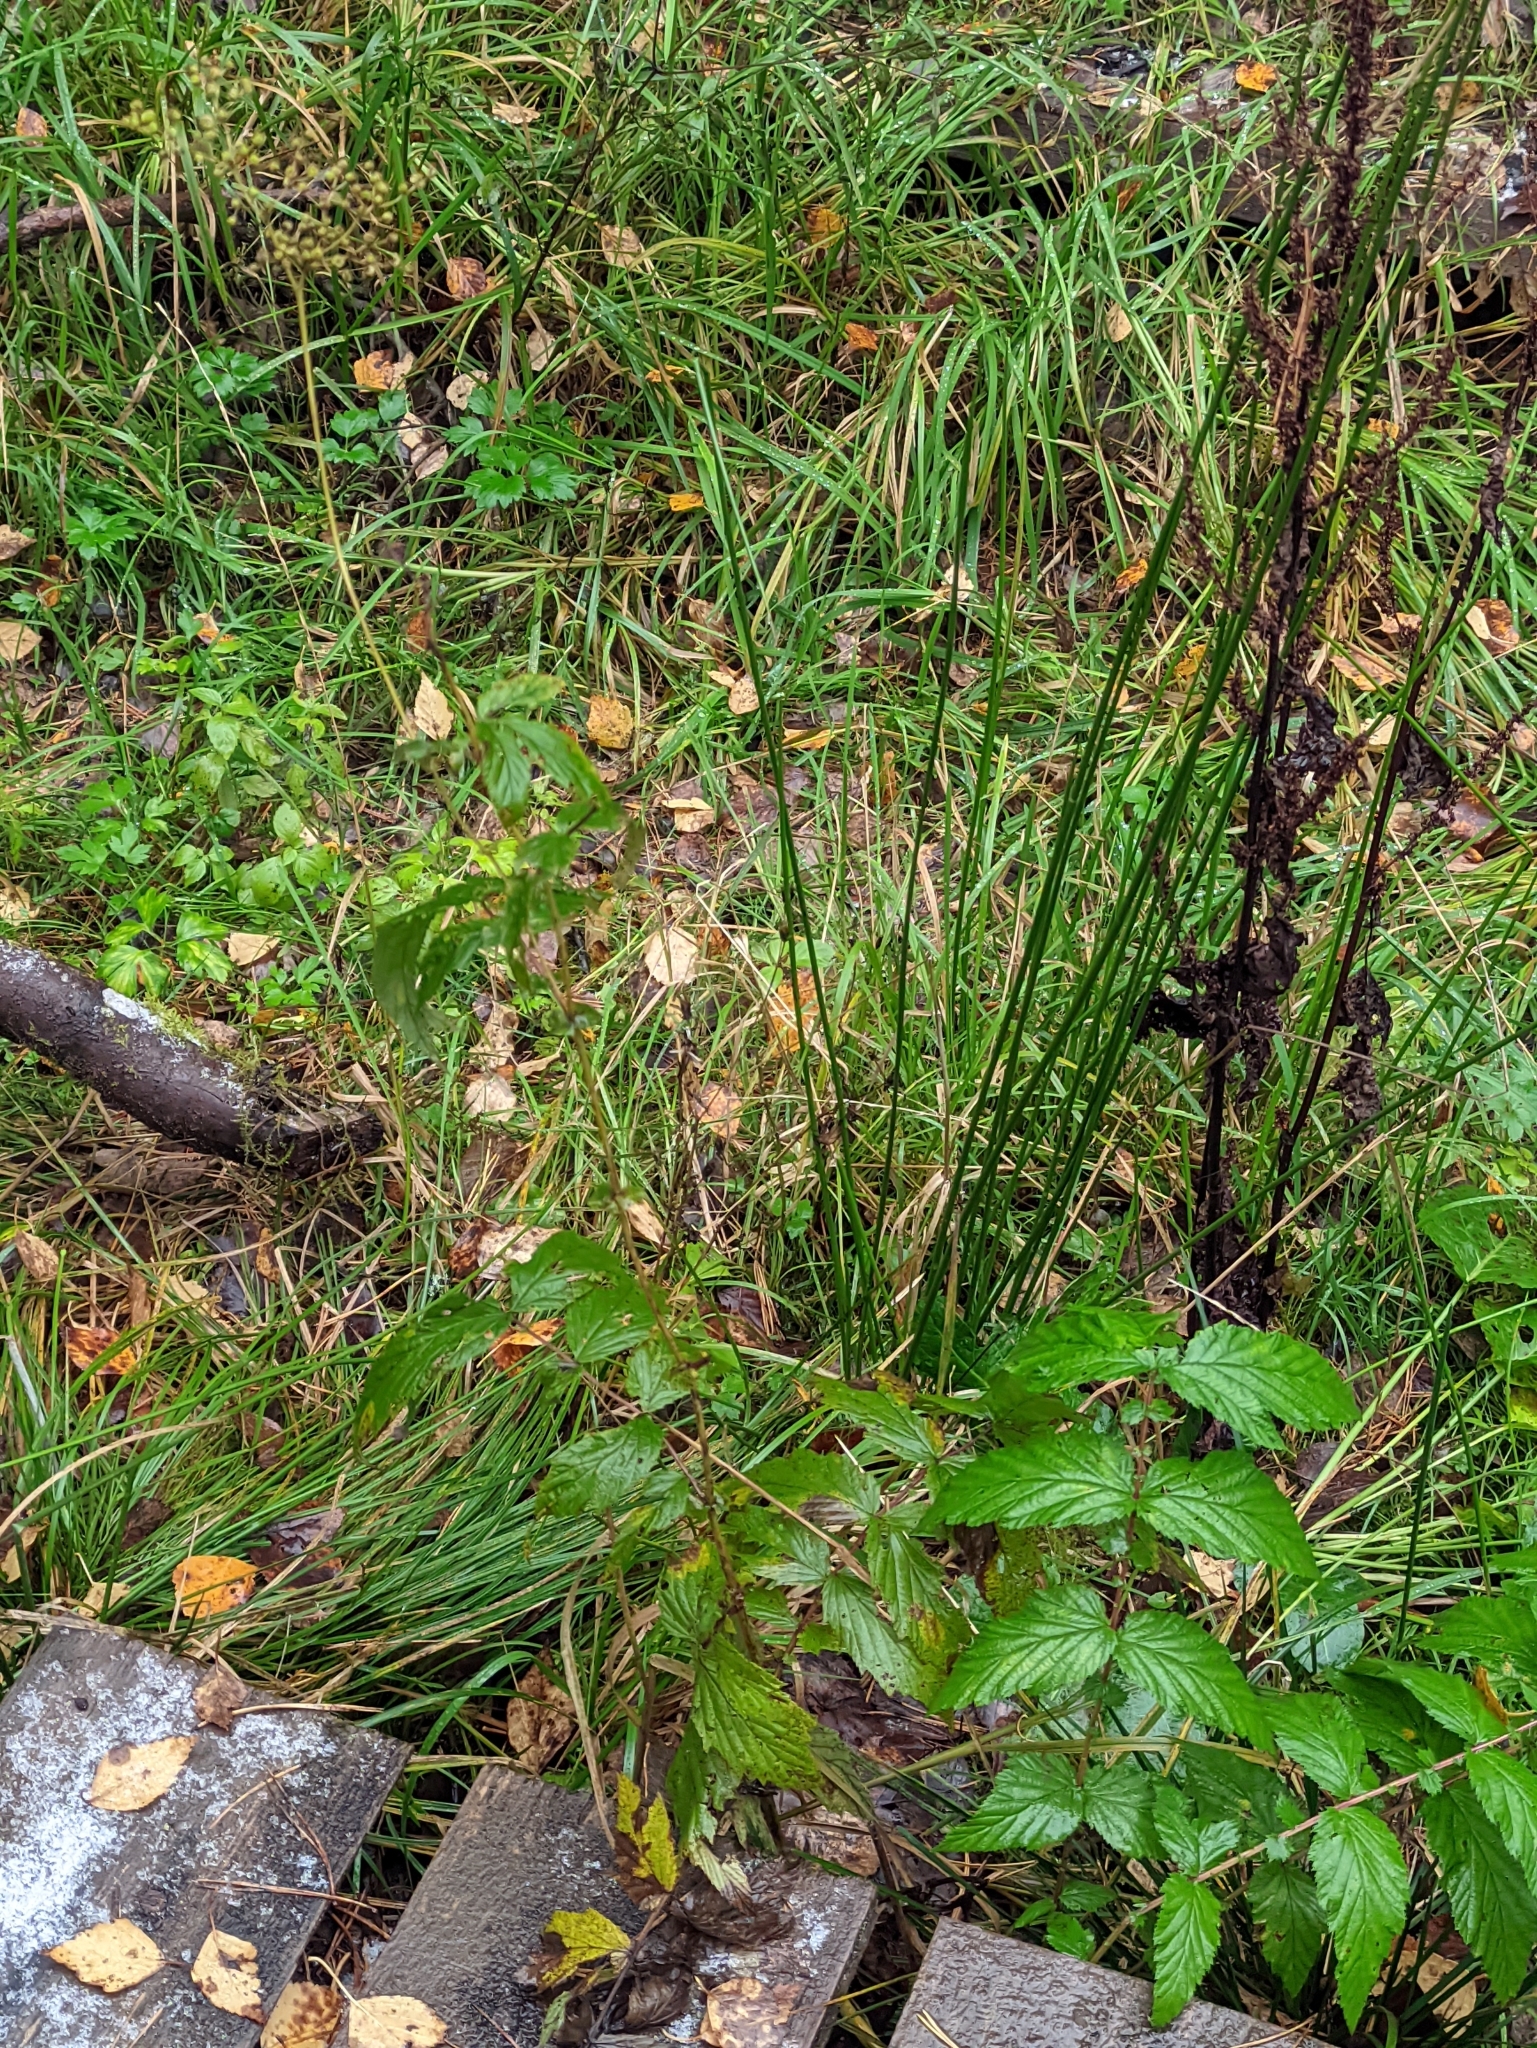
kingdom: Plantae
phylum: Tracheophyta
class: Magnoliopsida
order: Rosales
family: Rosaceae
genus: Filipendula
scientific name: Filipendula ulmaria
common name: Meadowsweet
